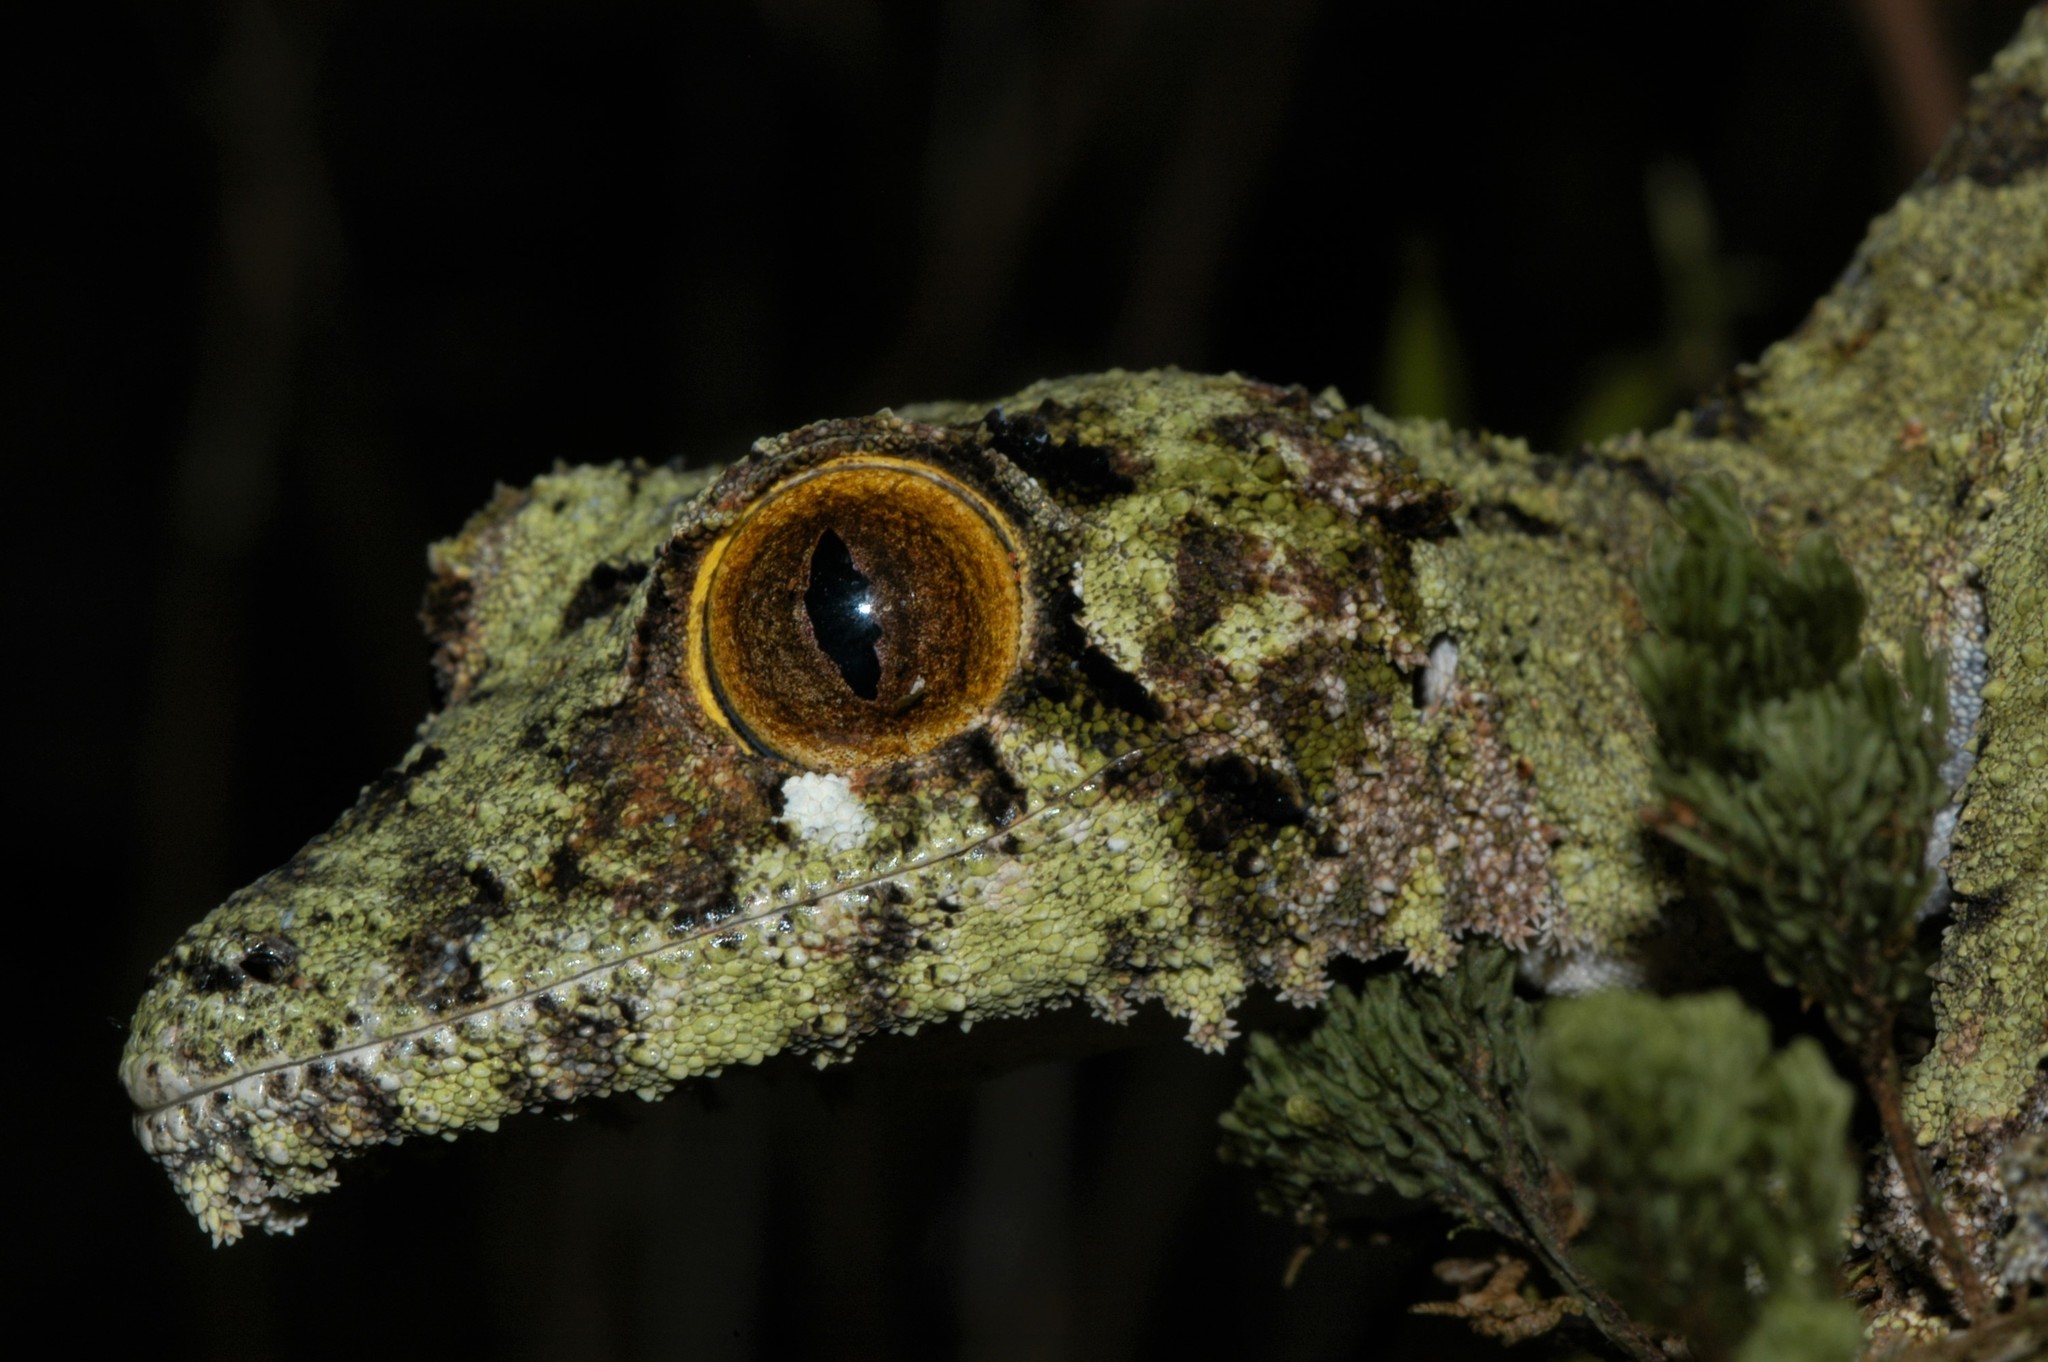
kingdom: Animalia
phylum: Chordata
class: Squamata
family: Gekkonidae
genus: Uroplatus
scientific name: Uroplatus sikorae
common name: Southern flat-tail gecko
